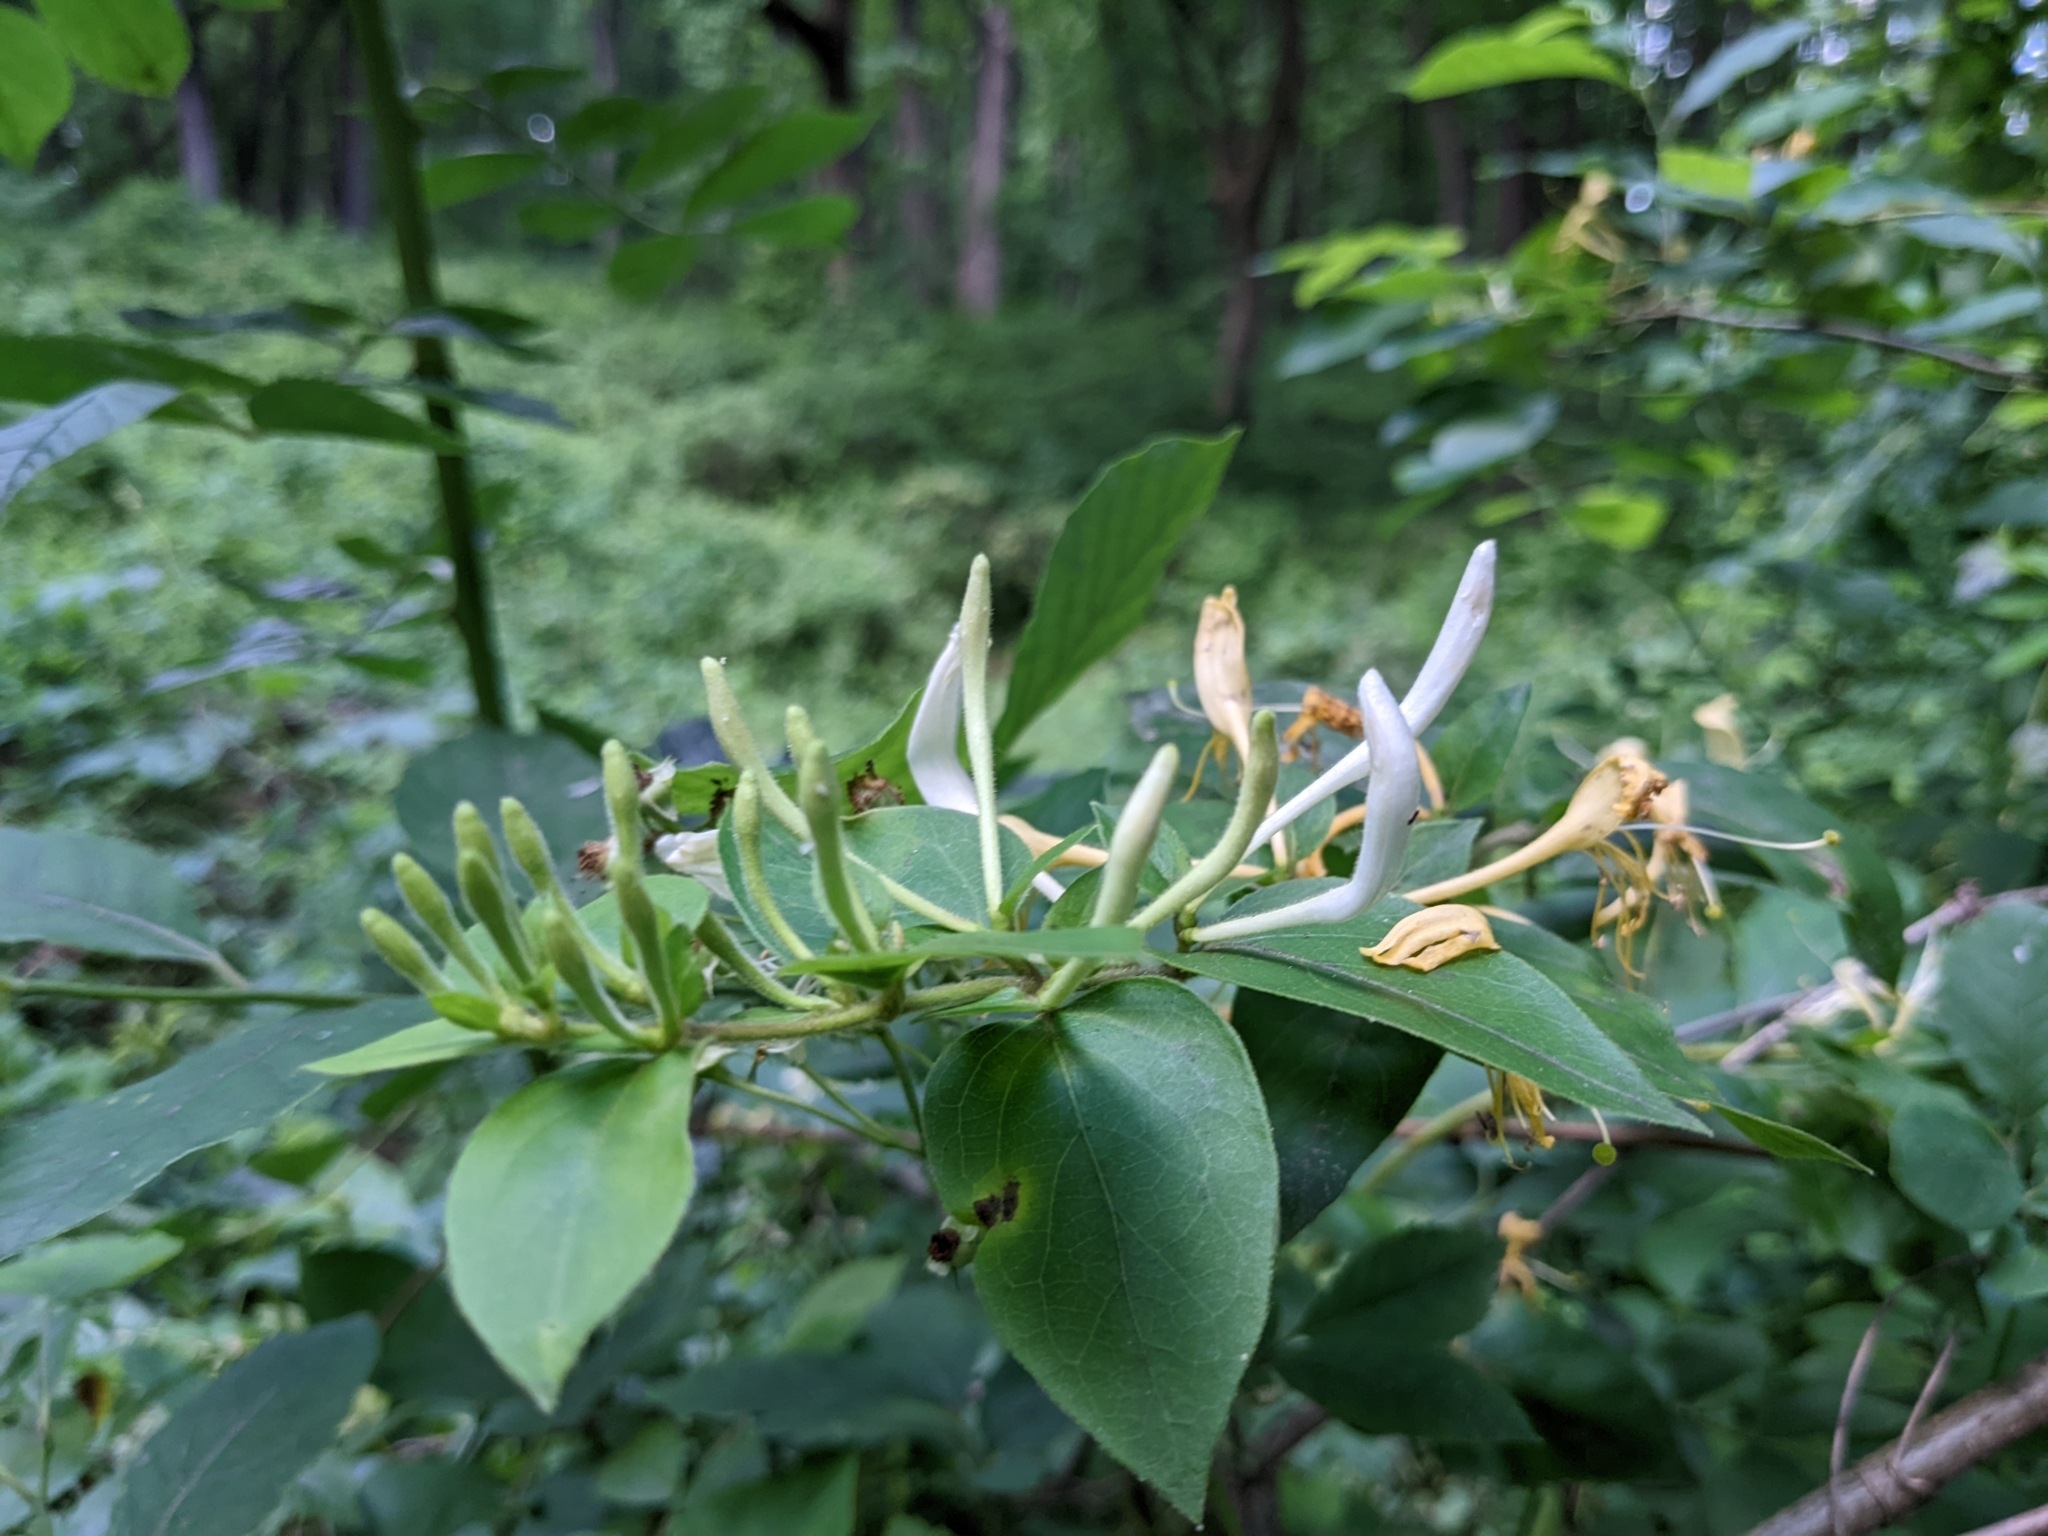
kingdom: Plantae
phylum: Tracheophyta
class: Magnoliopsida
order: Dipsacales
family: Caprifoliaceae
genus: Lonicera
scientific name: Lonicera japonica
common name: Japanese honeysuckle
